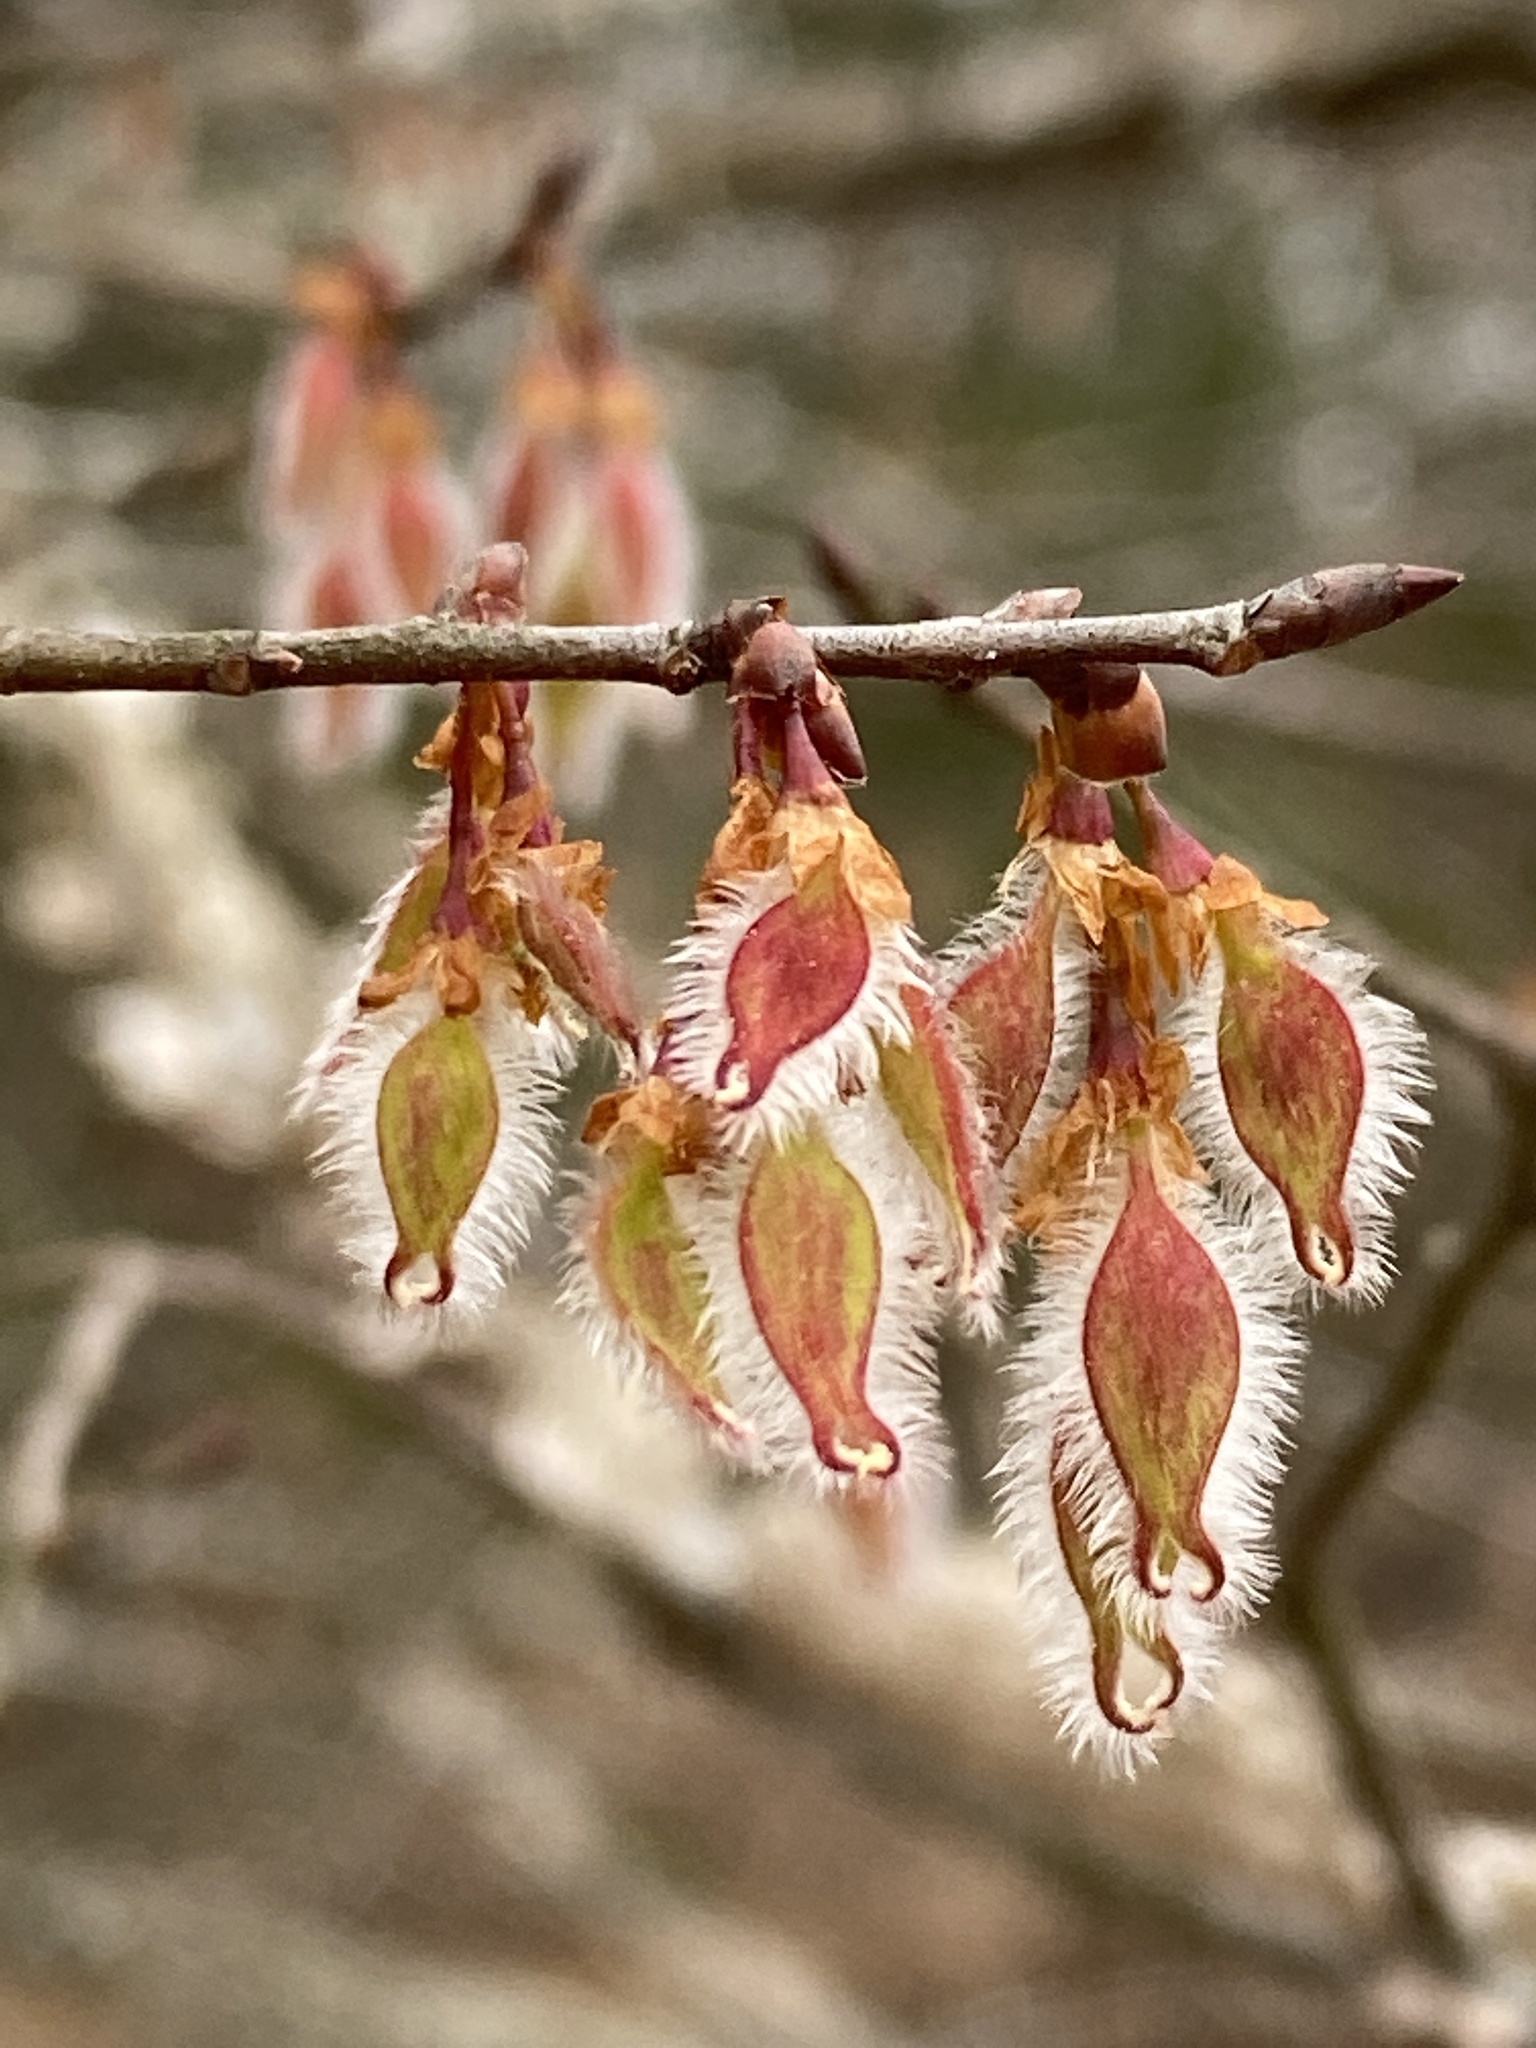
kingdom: Plantae
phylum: Tracheophyta
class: Magnoliopsida
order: Rosales
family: Ulmaceae
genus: Ulmus
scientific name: Ulmus alata
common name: Winged elm
